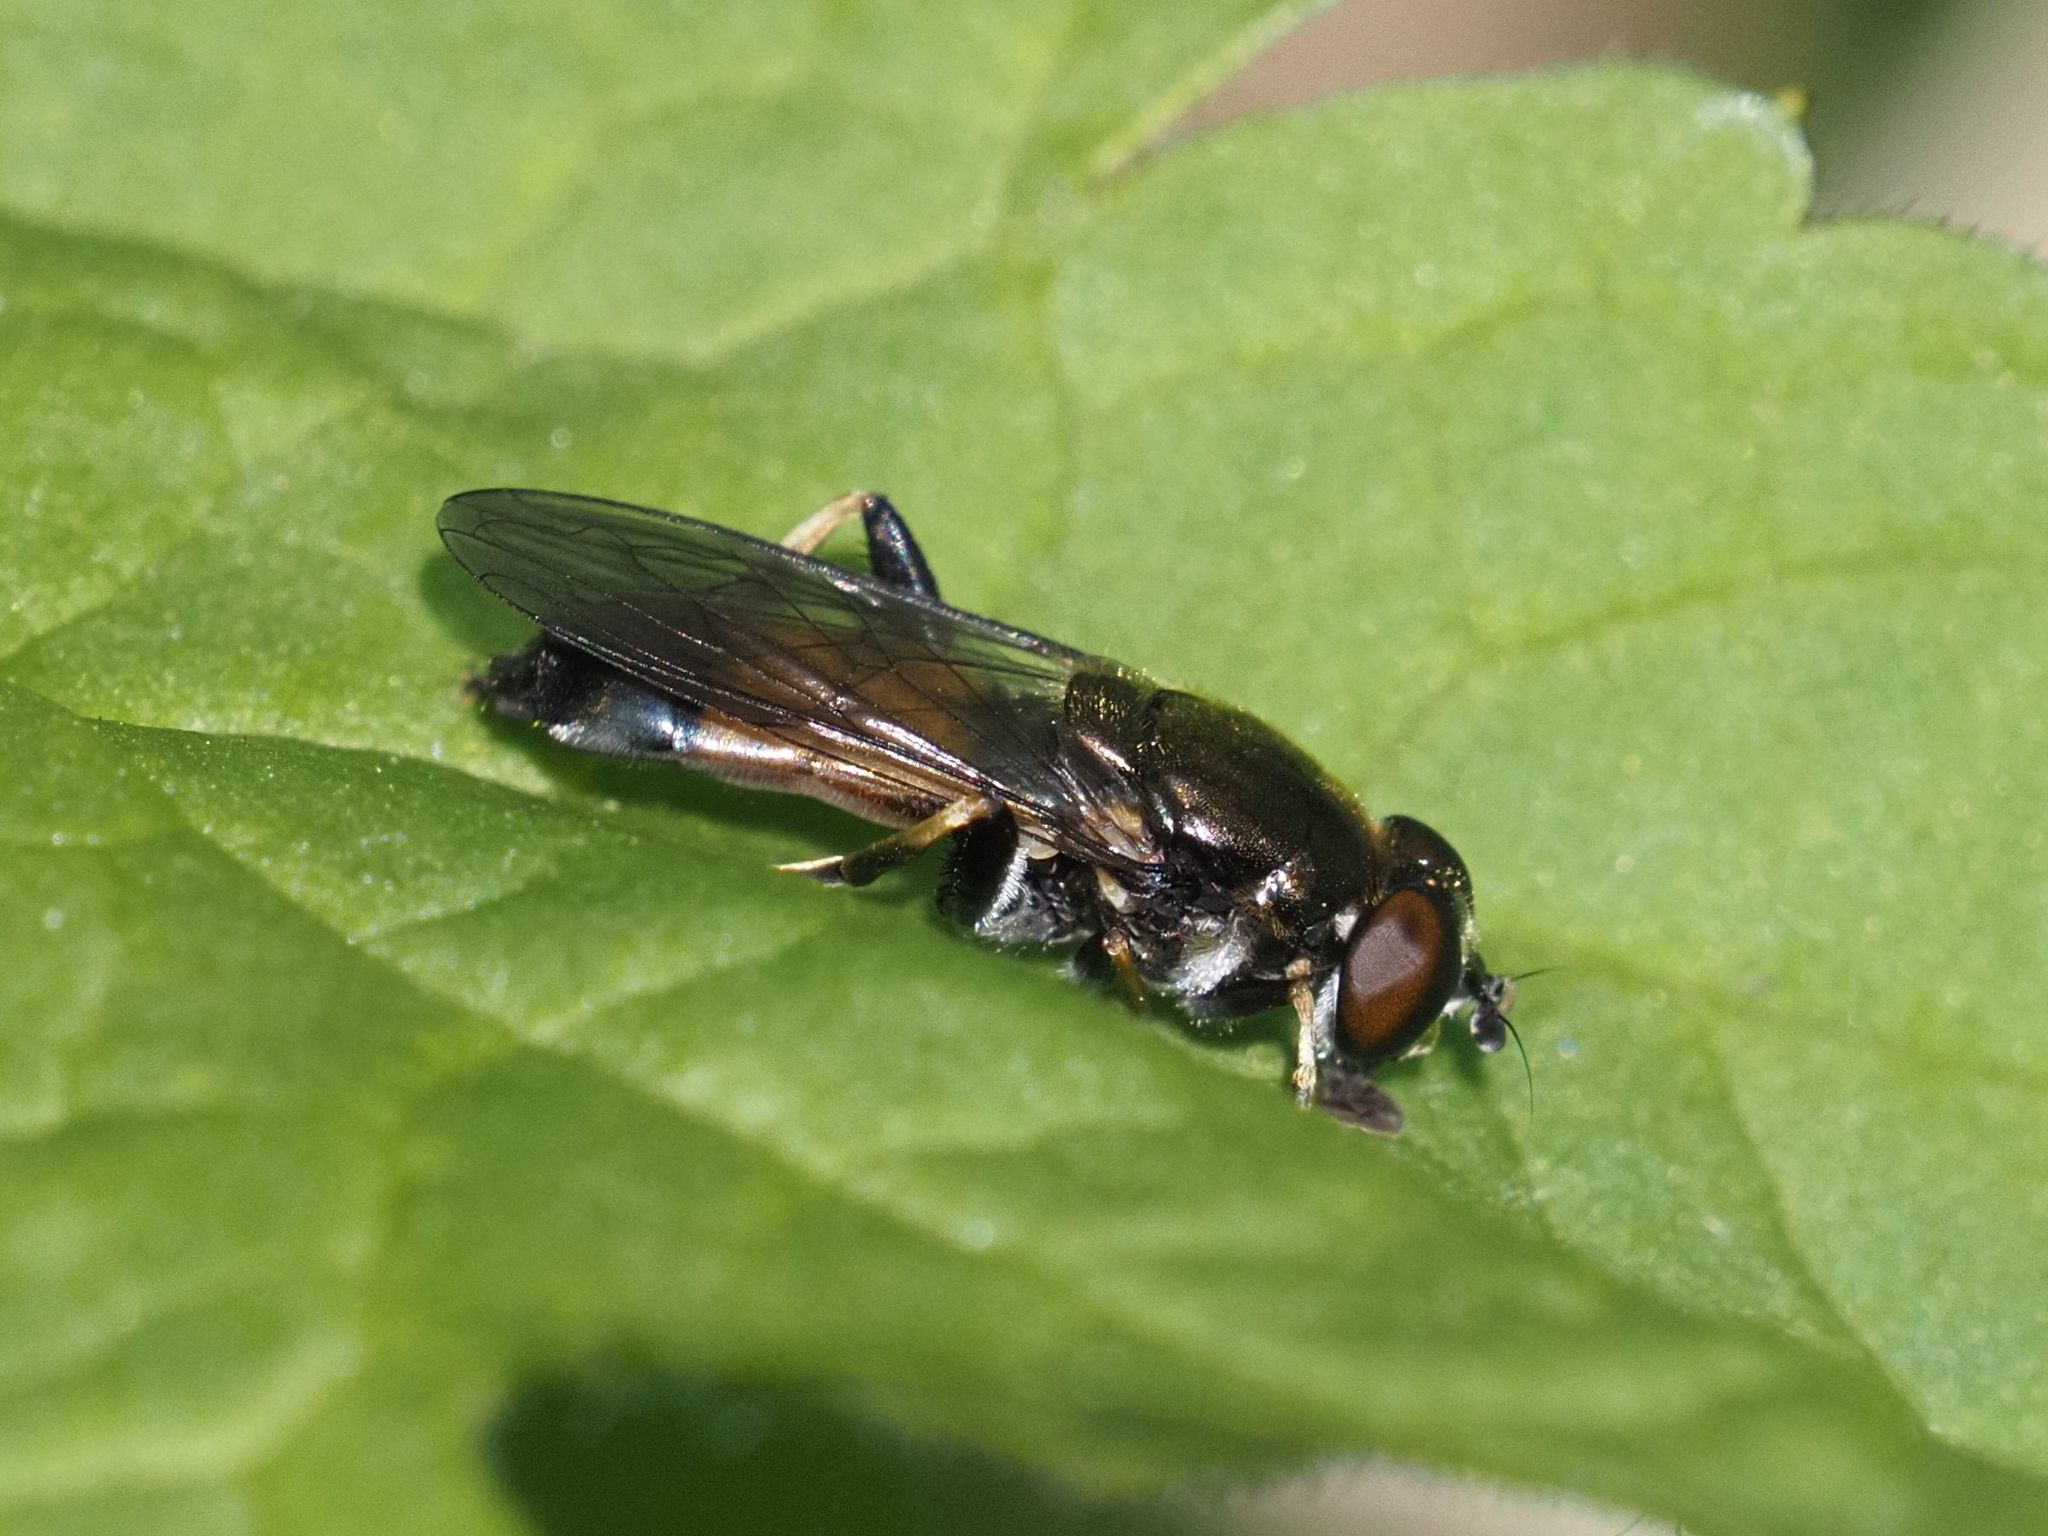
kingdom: Animalia
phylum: Arthropoda
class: Insecta
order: Diptera
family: Syrphidae
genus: Xylota
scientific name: Xylota segnis
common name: Brown-toed forest fly
